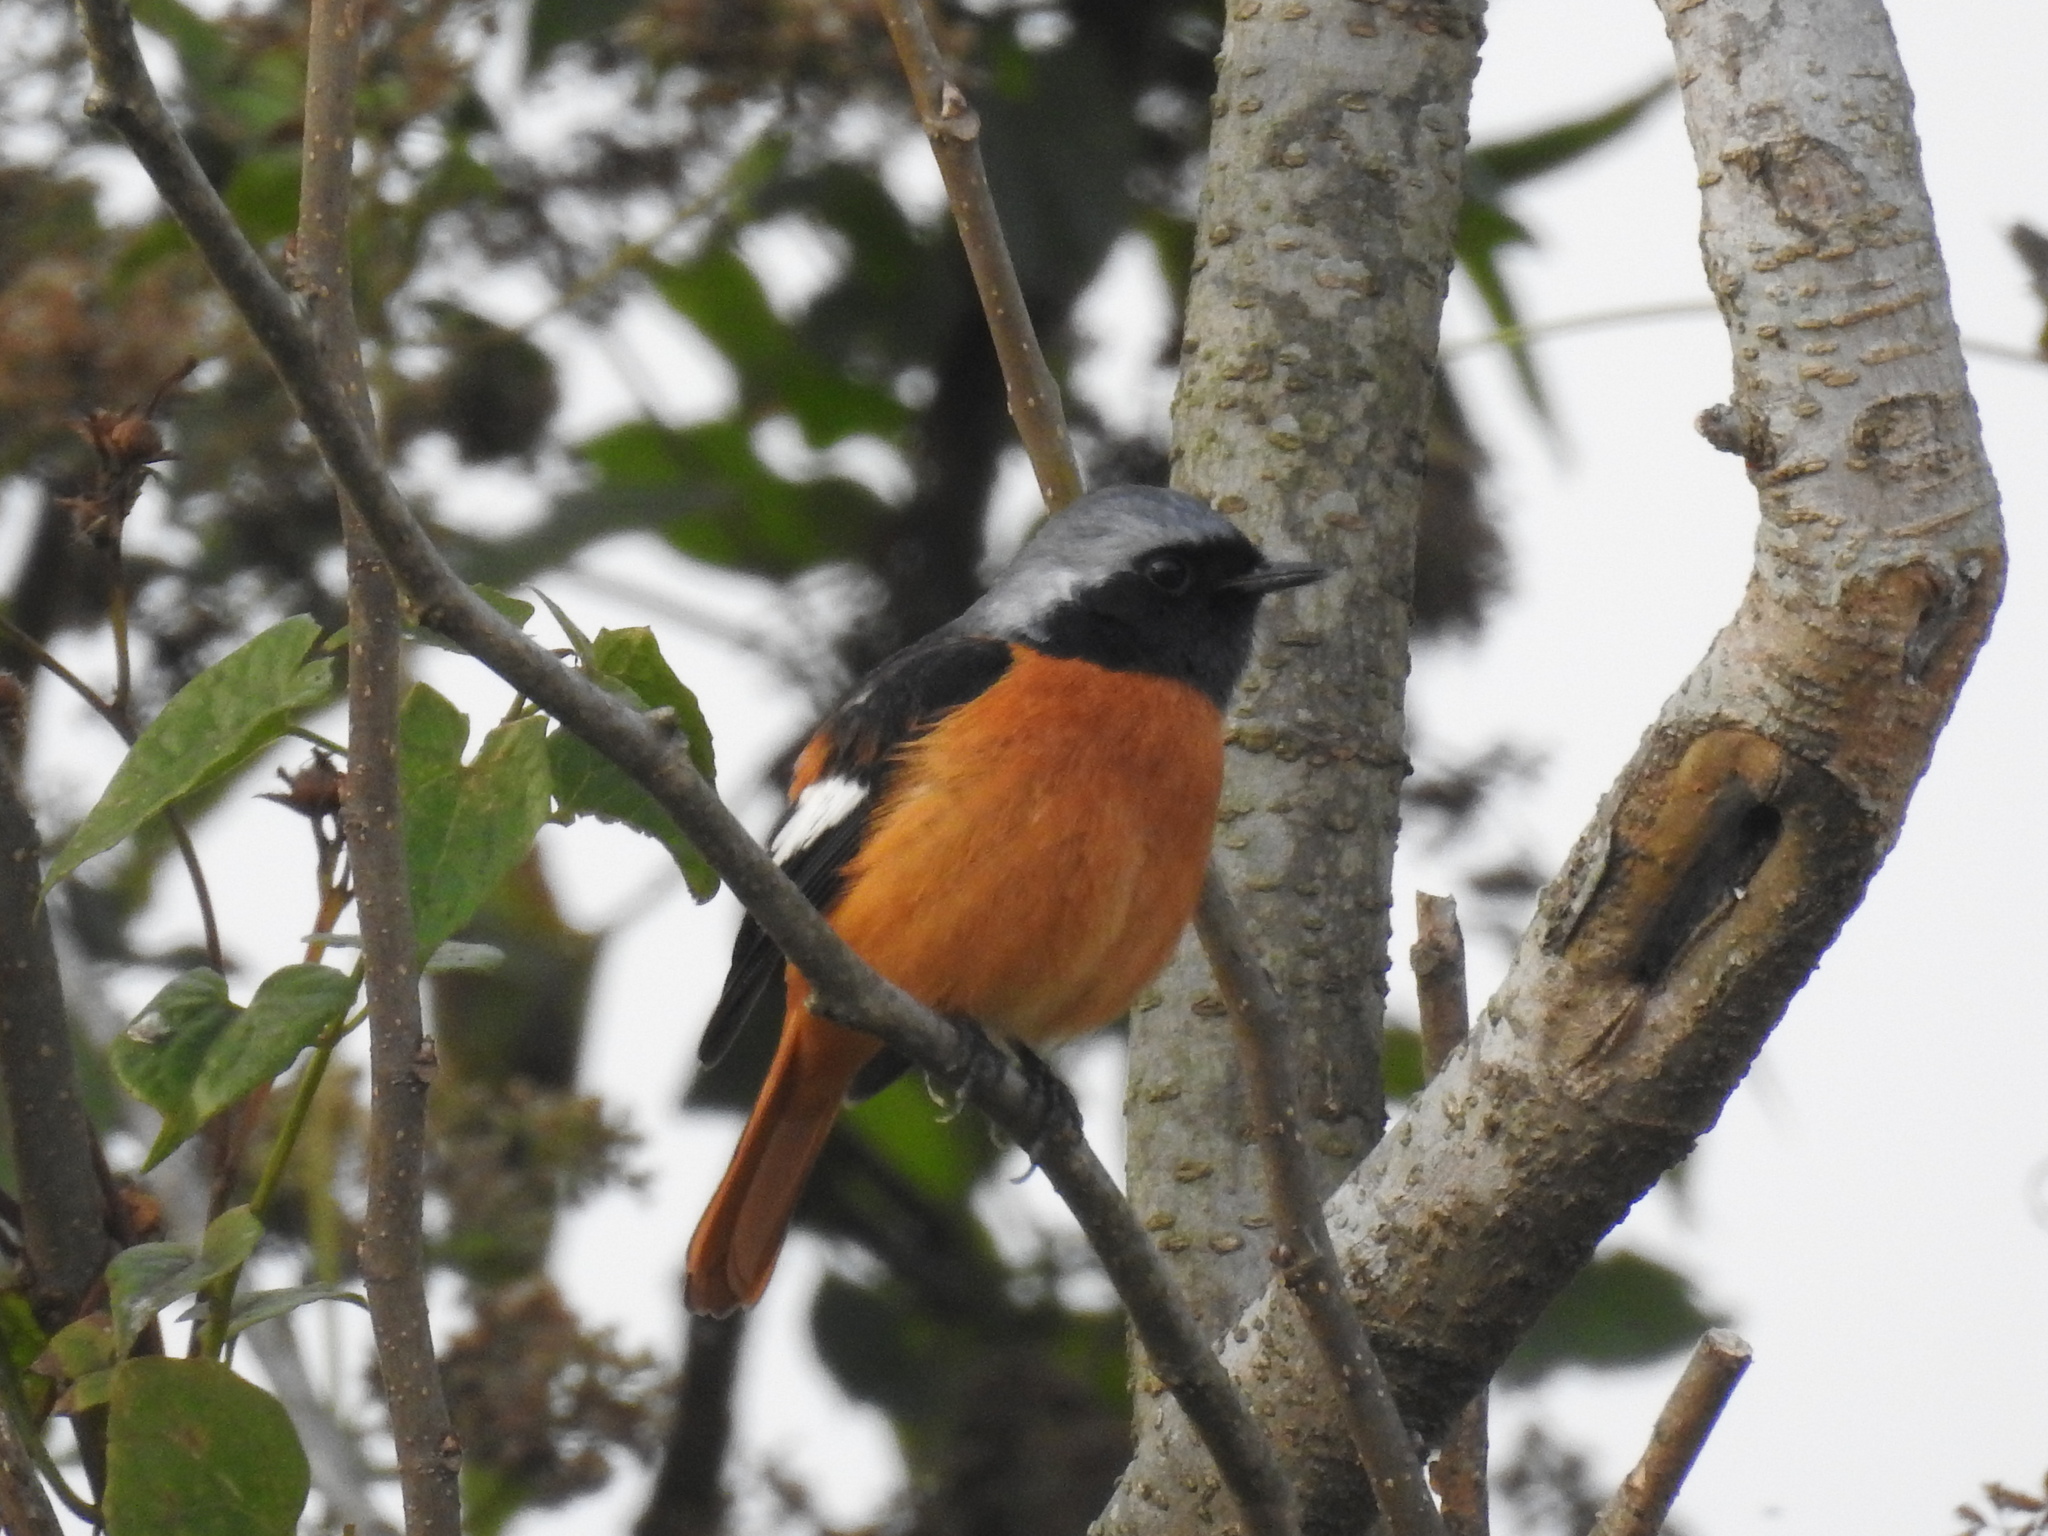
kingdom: Animalia
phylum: Chordata
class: Aves
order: Passeriformes
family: Muscicapidae
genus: Phoenicurus
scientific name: Phoenicurus auroreus
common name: Daurian redstart
